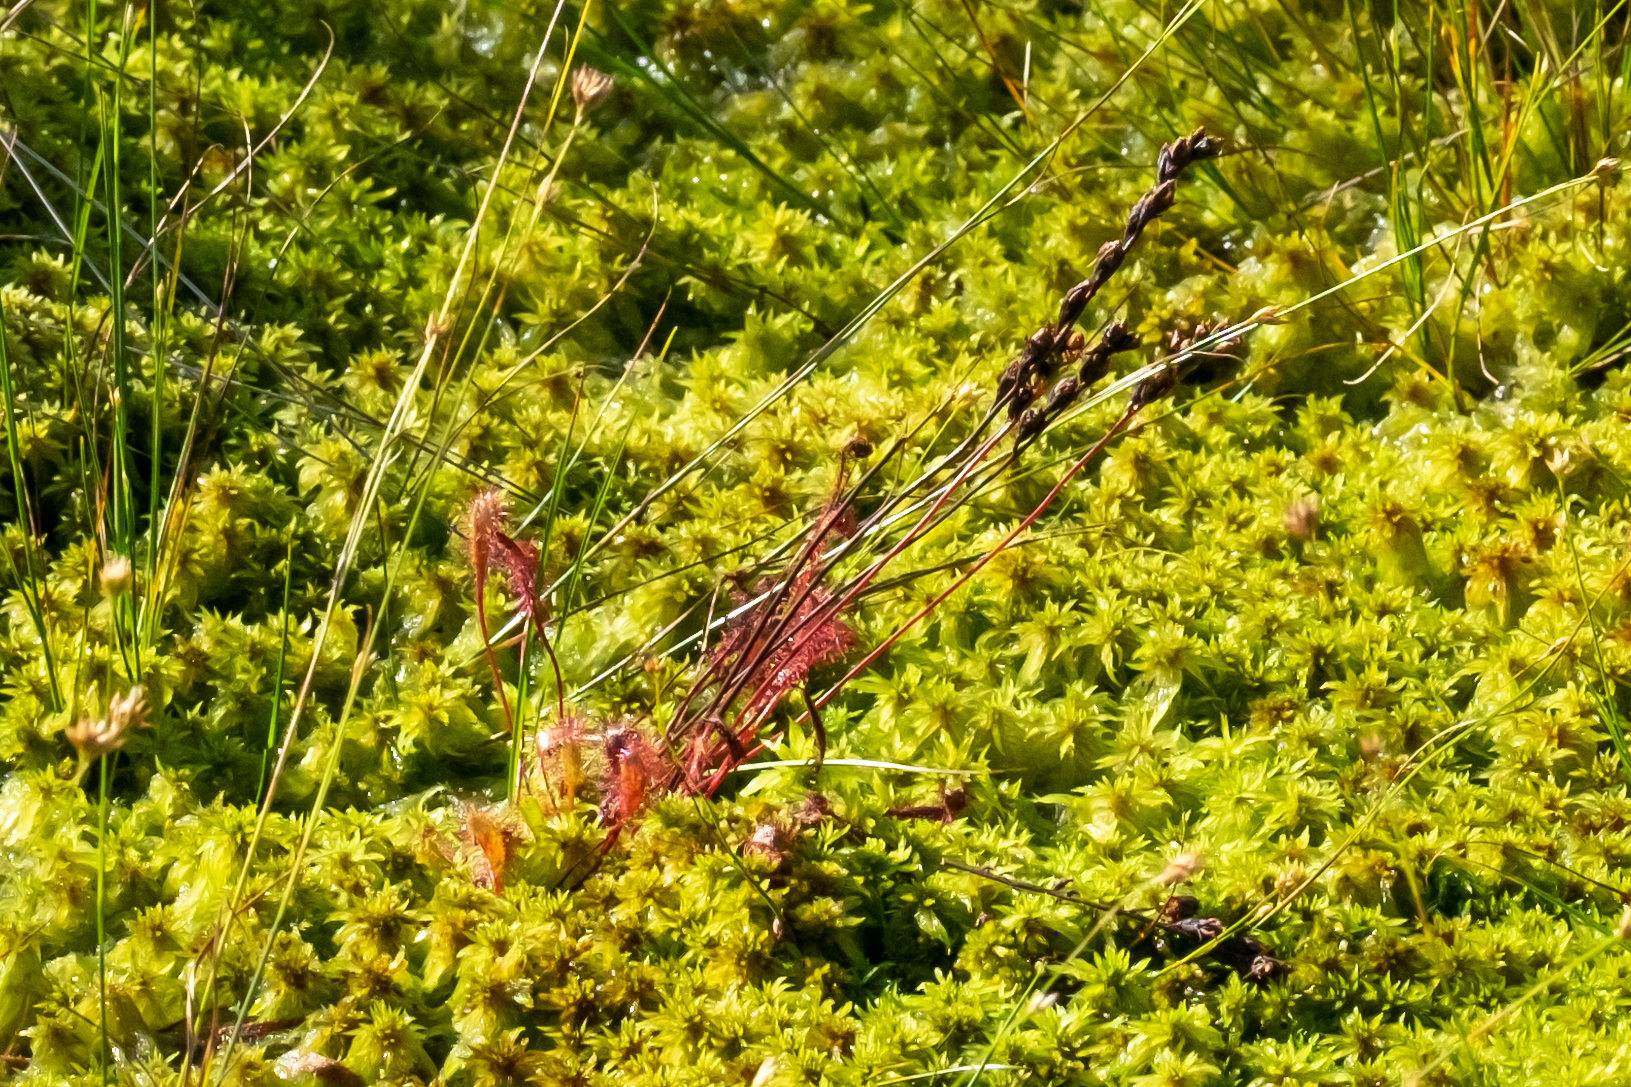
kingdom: Plantae
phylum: Tracheophyta
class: Magnoliopsida
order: Caryophyllales
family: Droseraceae
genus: Drosera
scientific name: Drosera anglica
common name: Great sundew
